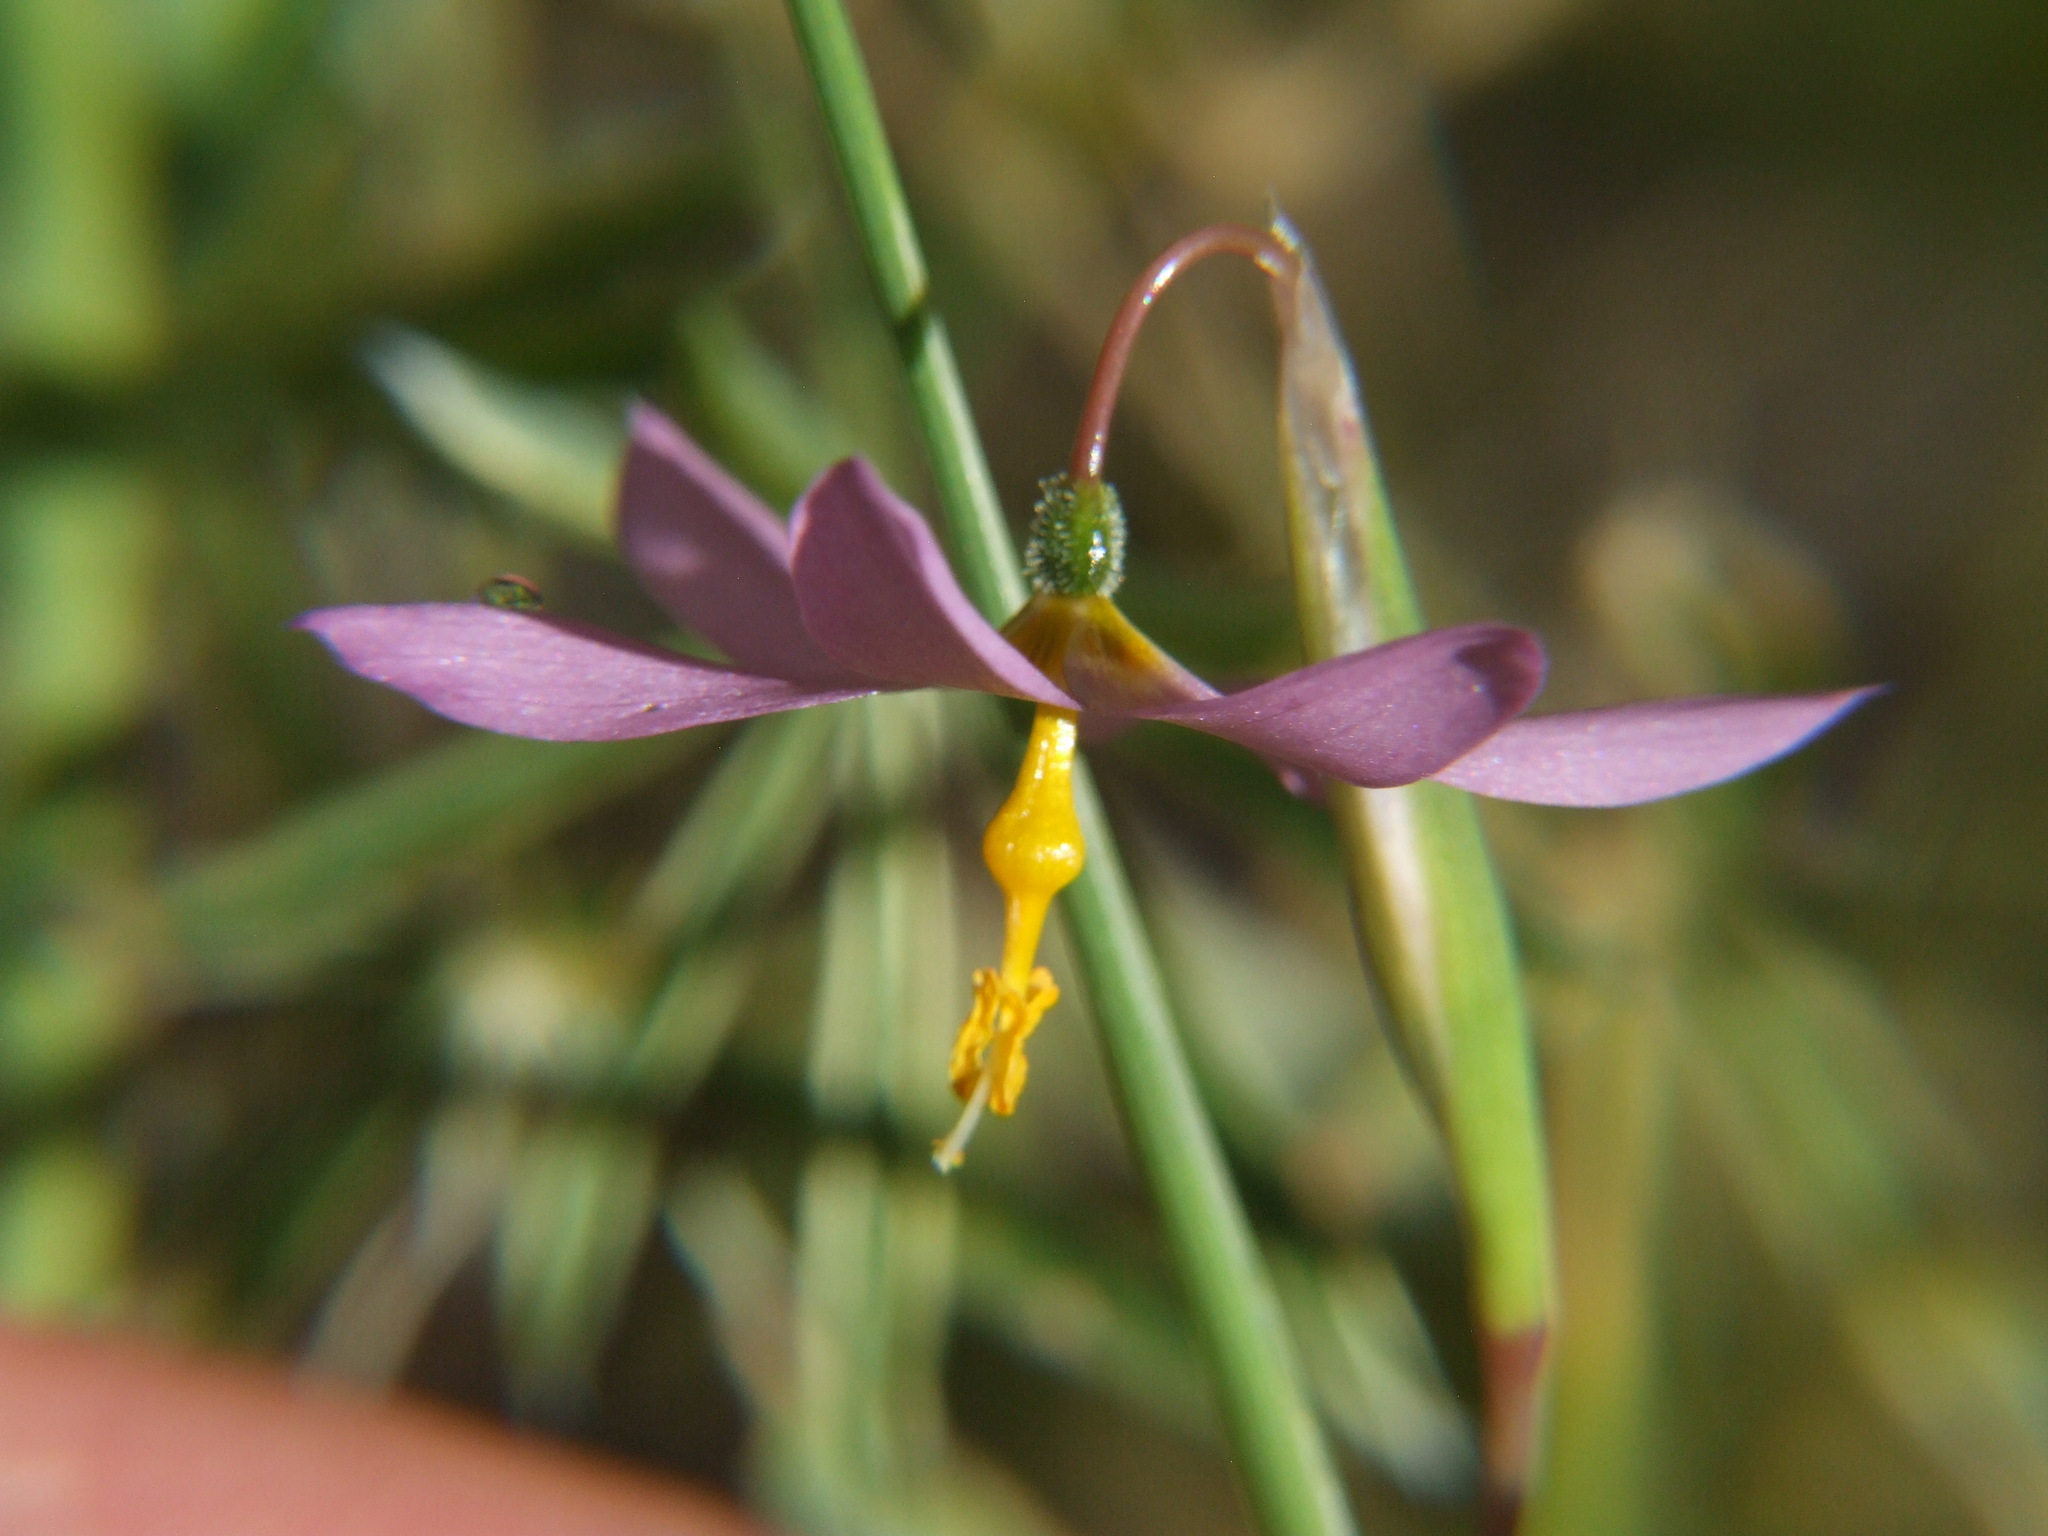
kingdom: Plantae
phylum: Tracheophyta
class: Liliopsida
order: Asparagales
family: Iridaceae
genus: Olsynium
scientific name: Olsynium junceum
